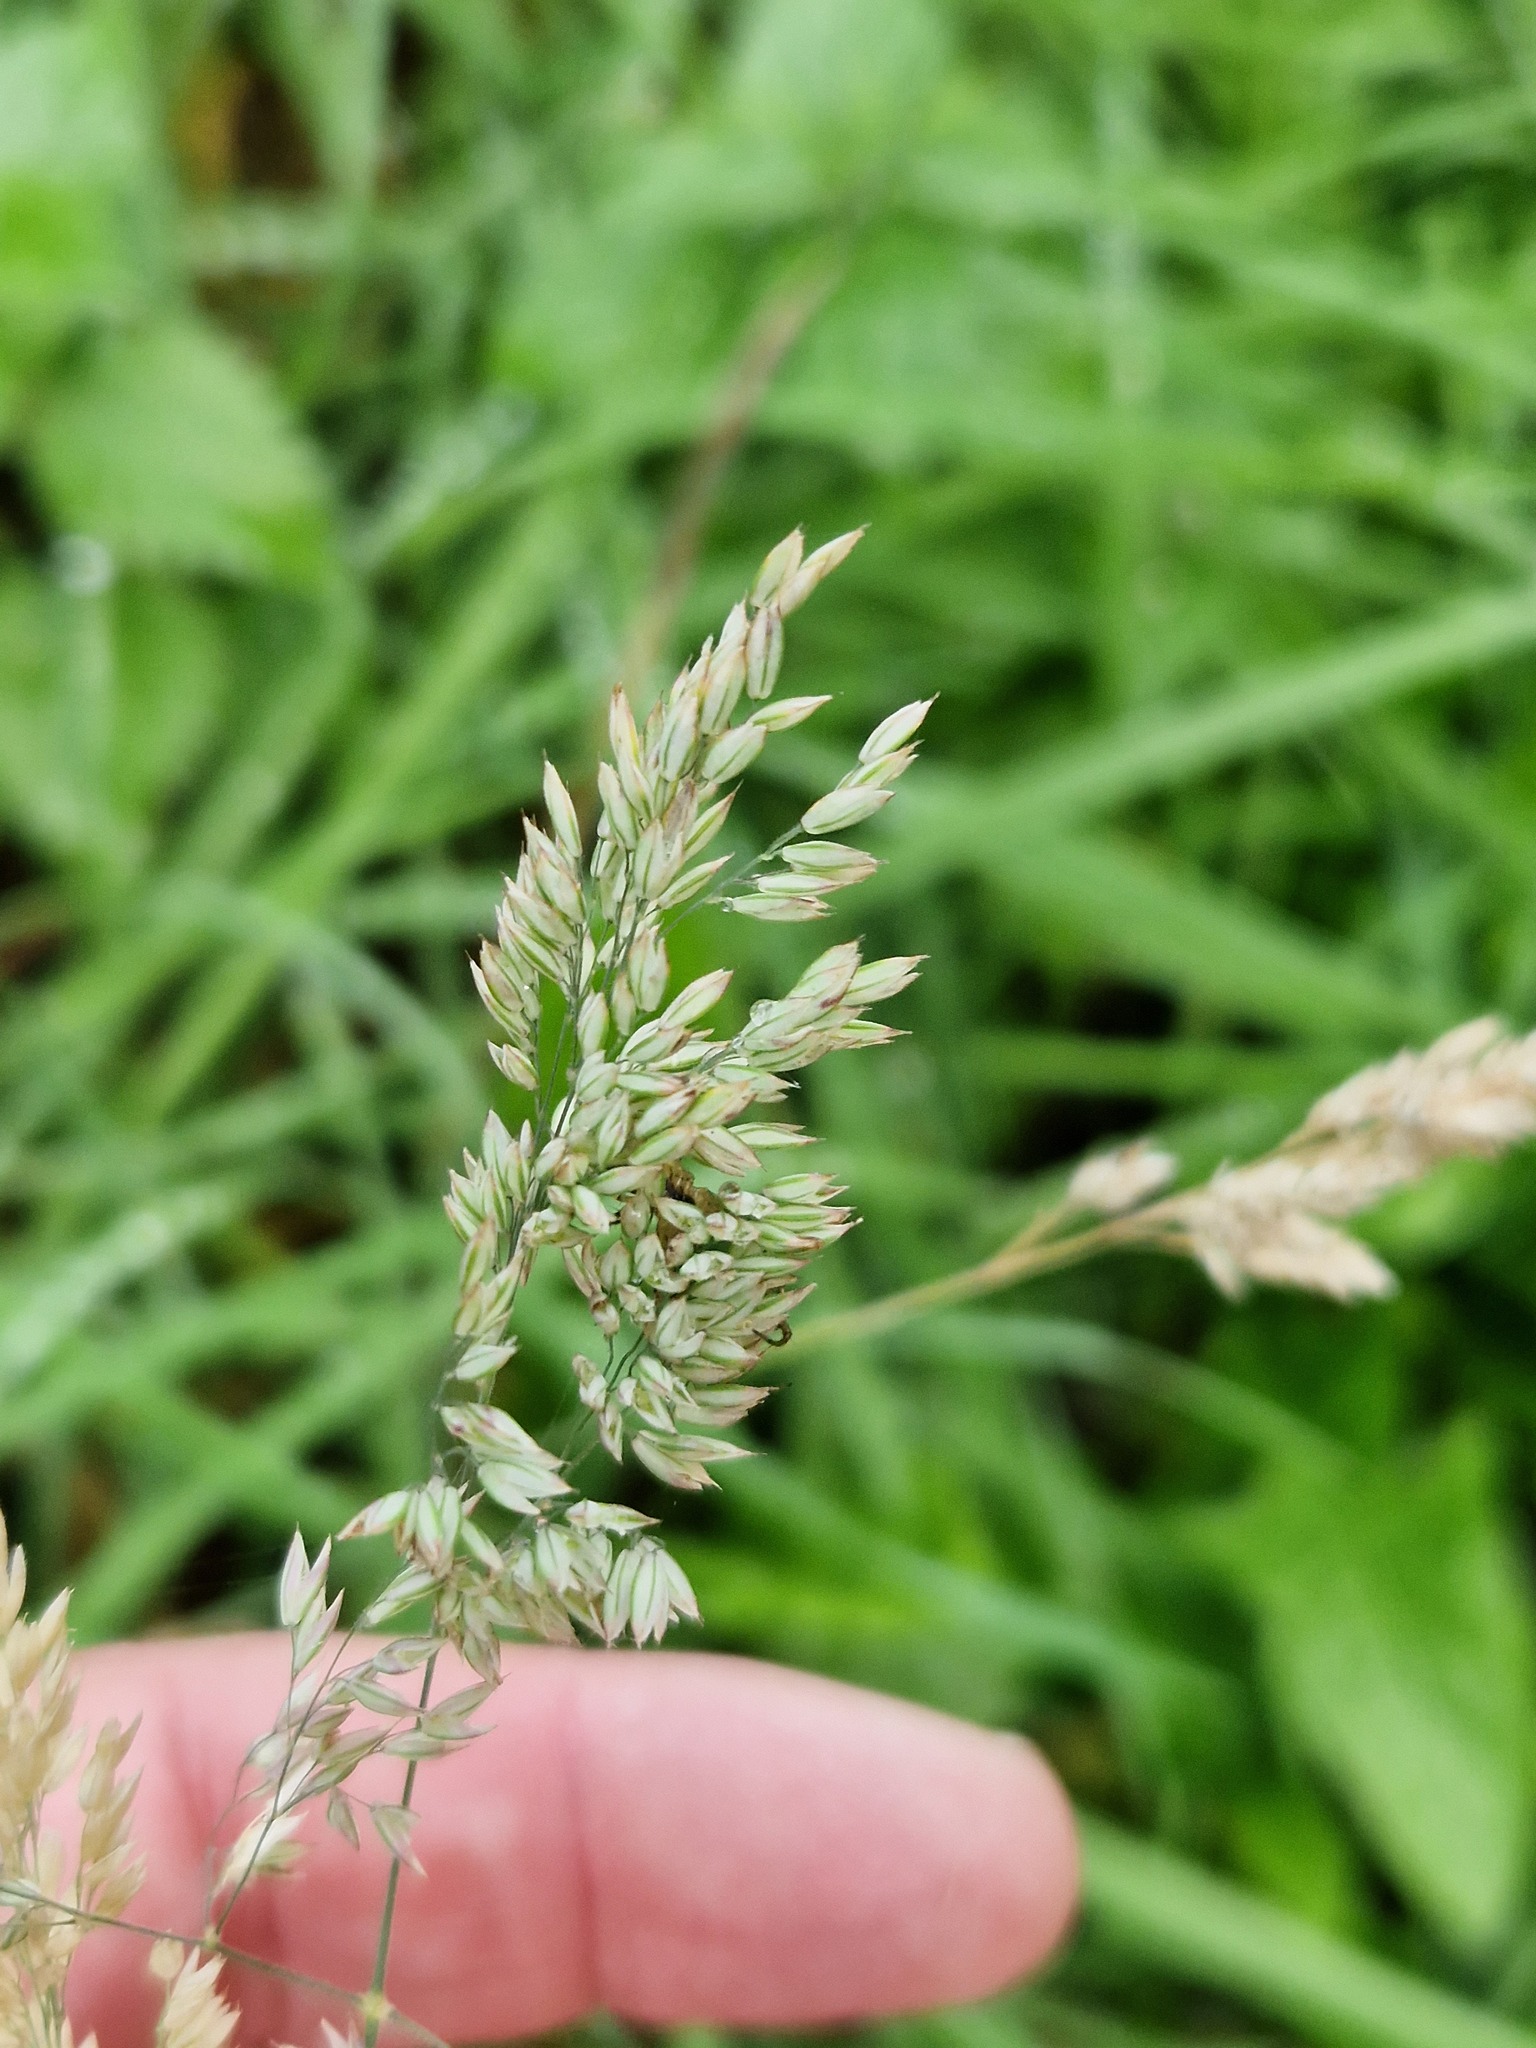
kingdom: Plantae
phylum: Tracheophyta
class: Liliopsida
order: Poales
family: Poaceae
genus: Holcus
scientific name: Holcus lanatus
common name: Yorkshire-fog
